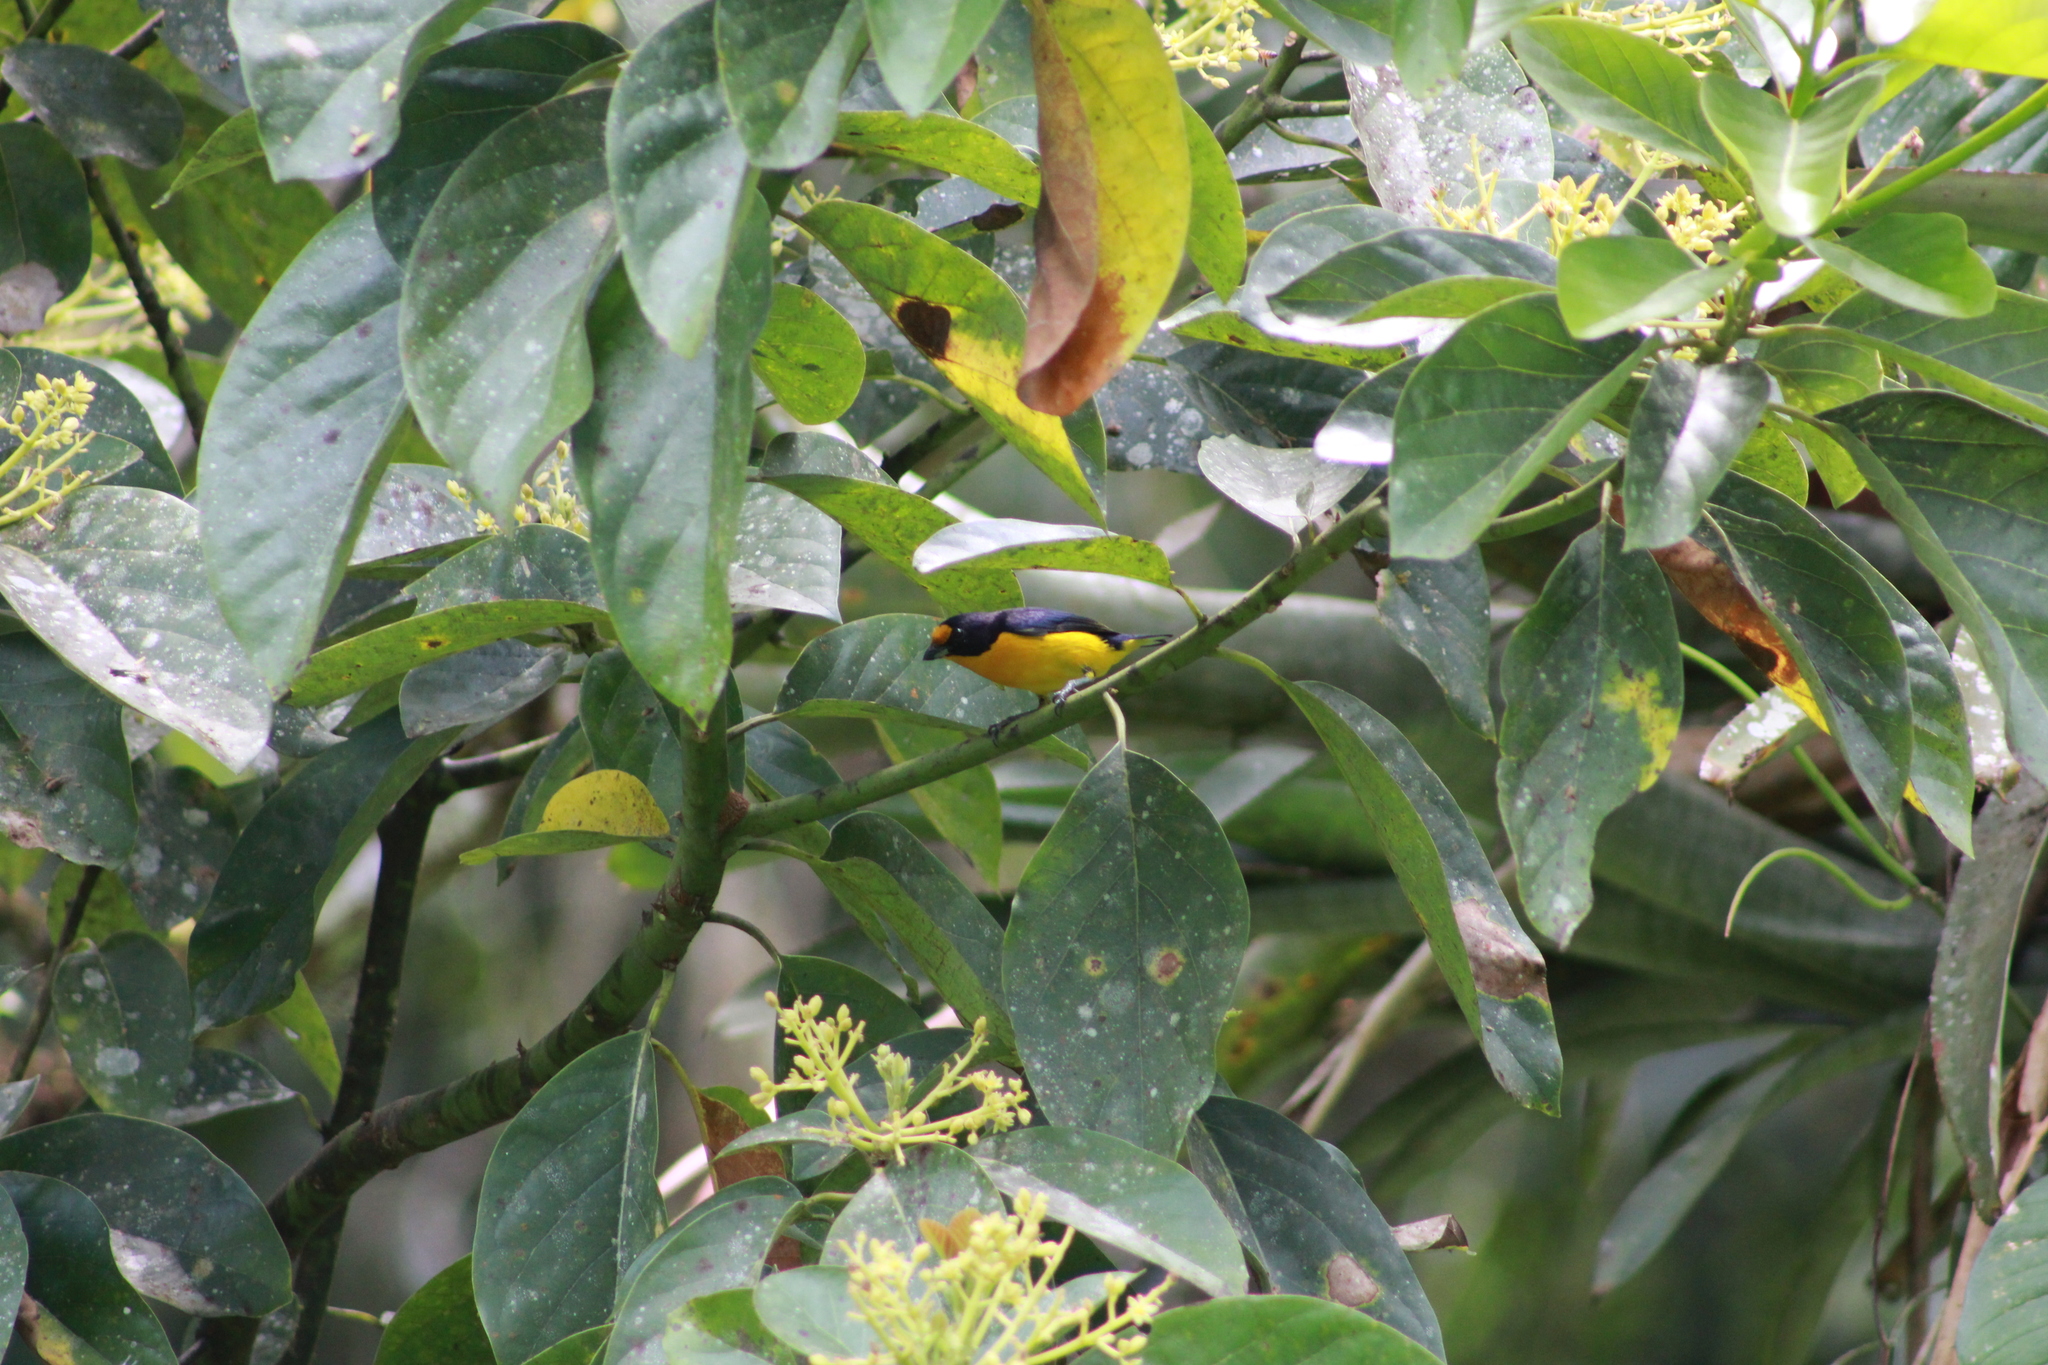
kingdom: Animalia
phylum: Chordata
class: Aves
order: Passeriformes
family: Fringillidae
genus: Euphonia
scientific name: Euphonia violacea
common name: Violaceous euphonia
